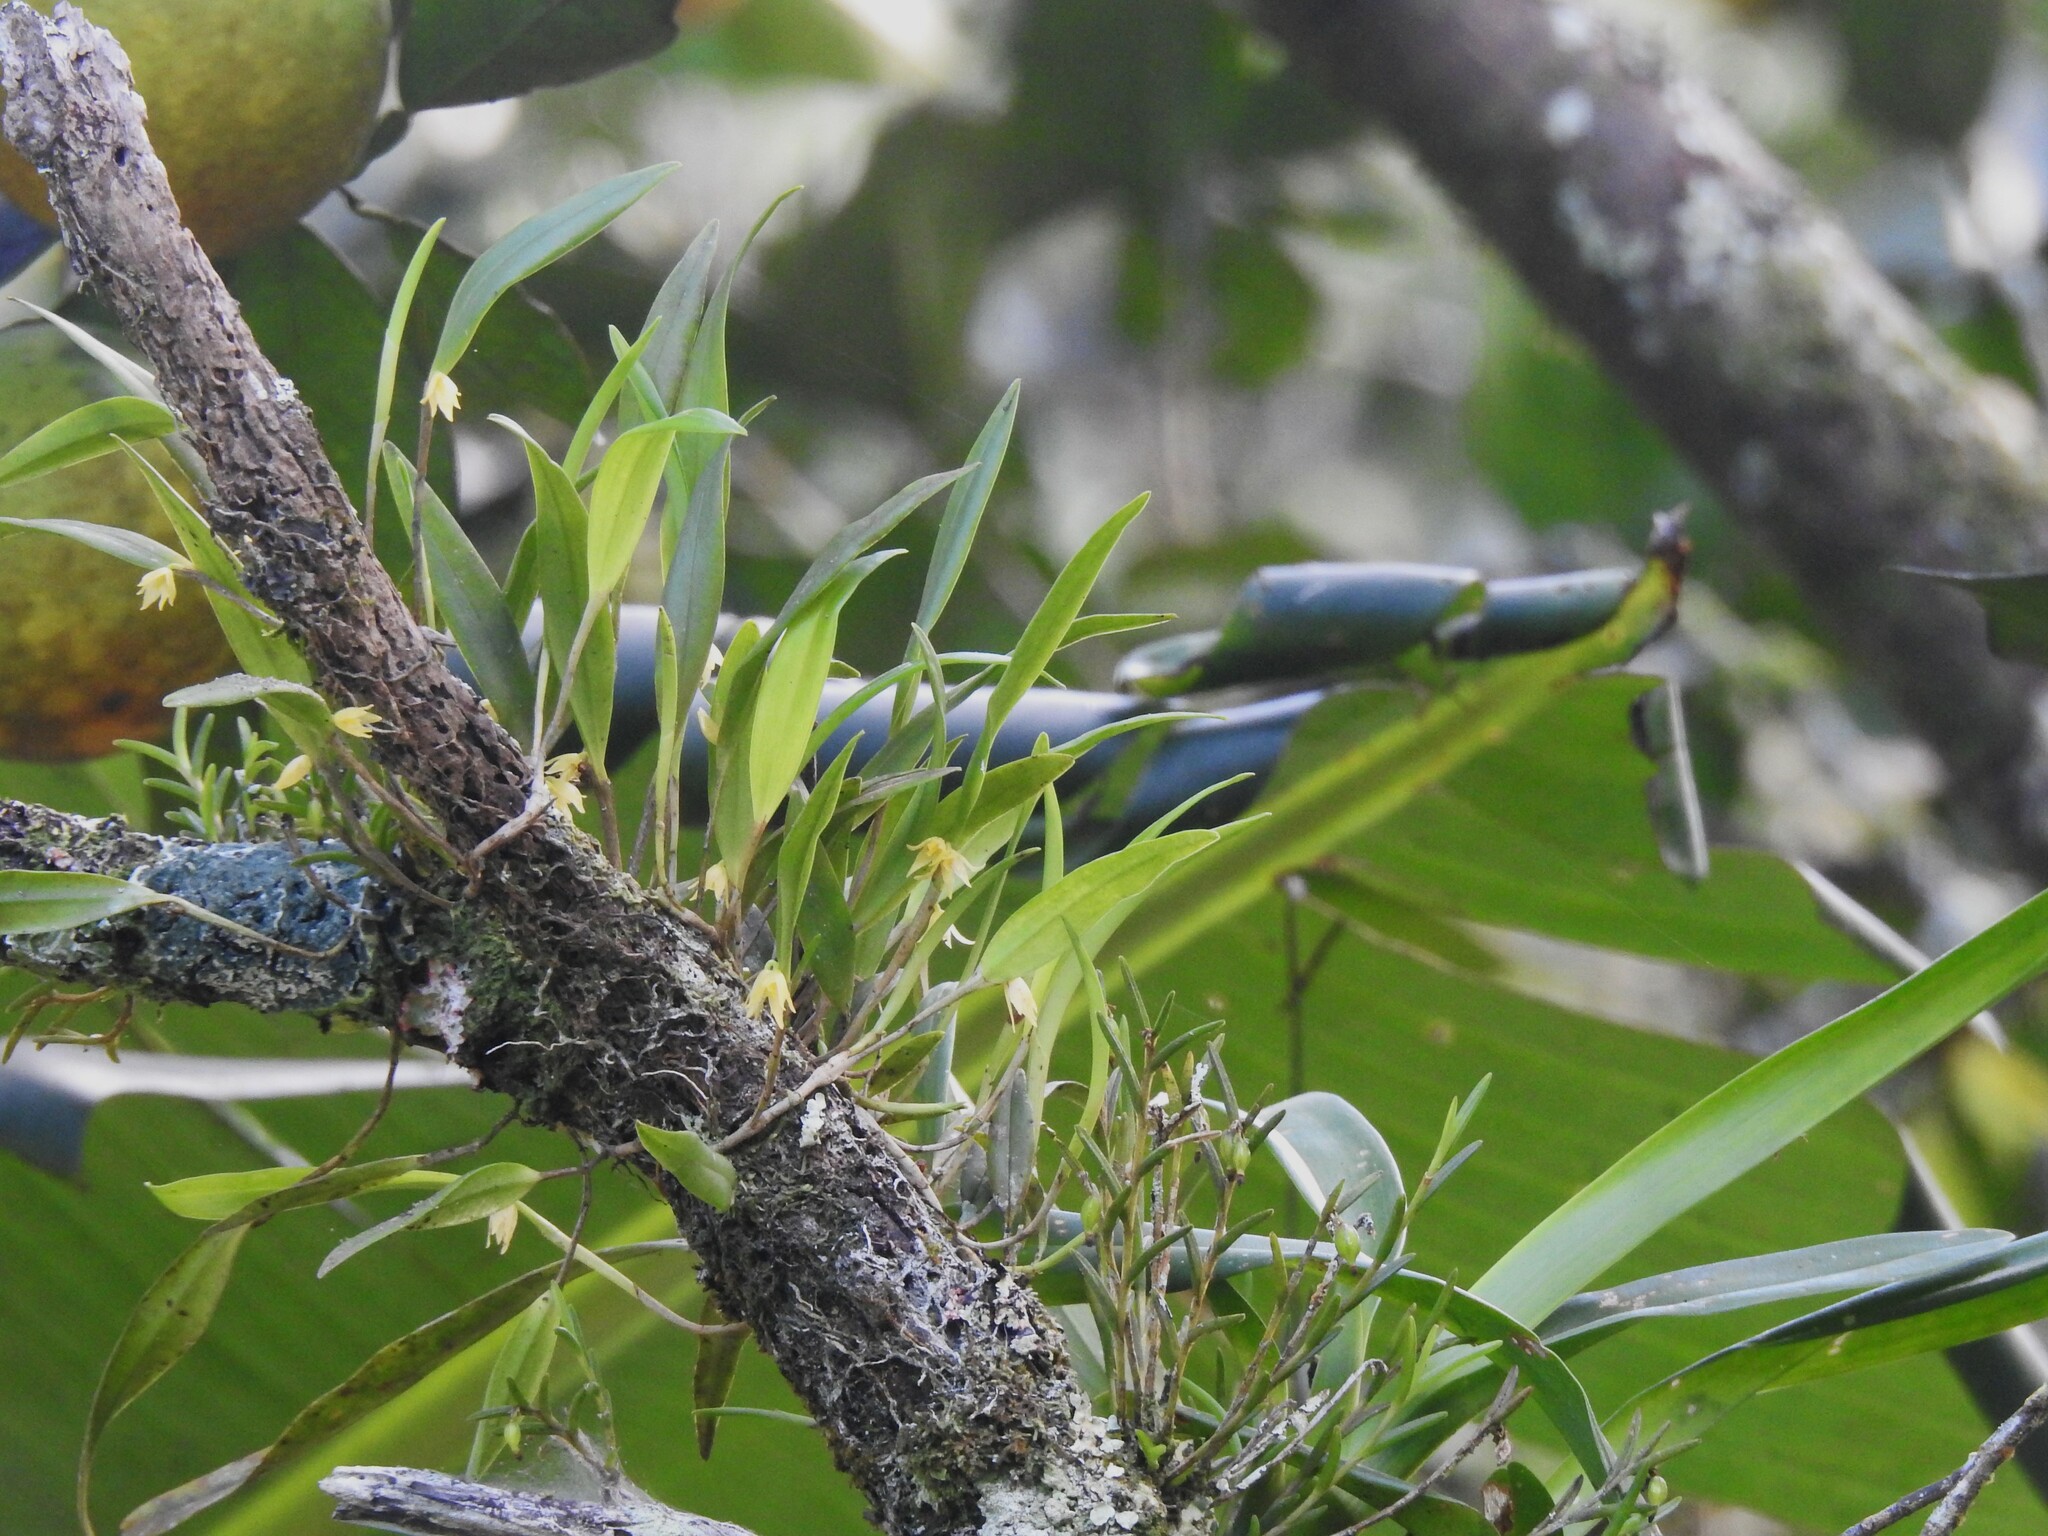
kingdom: Plantae
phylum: Tracheophyta
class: Liliopsida
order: Asparagales
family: Orchidaceae
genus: Octomeria
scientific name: Octomeria graminifolia
